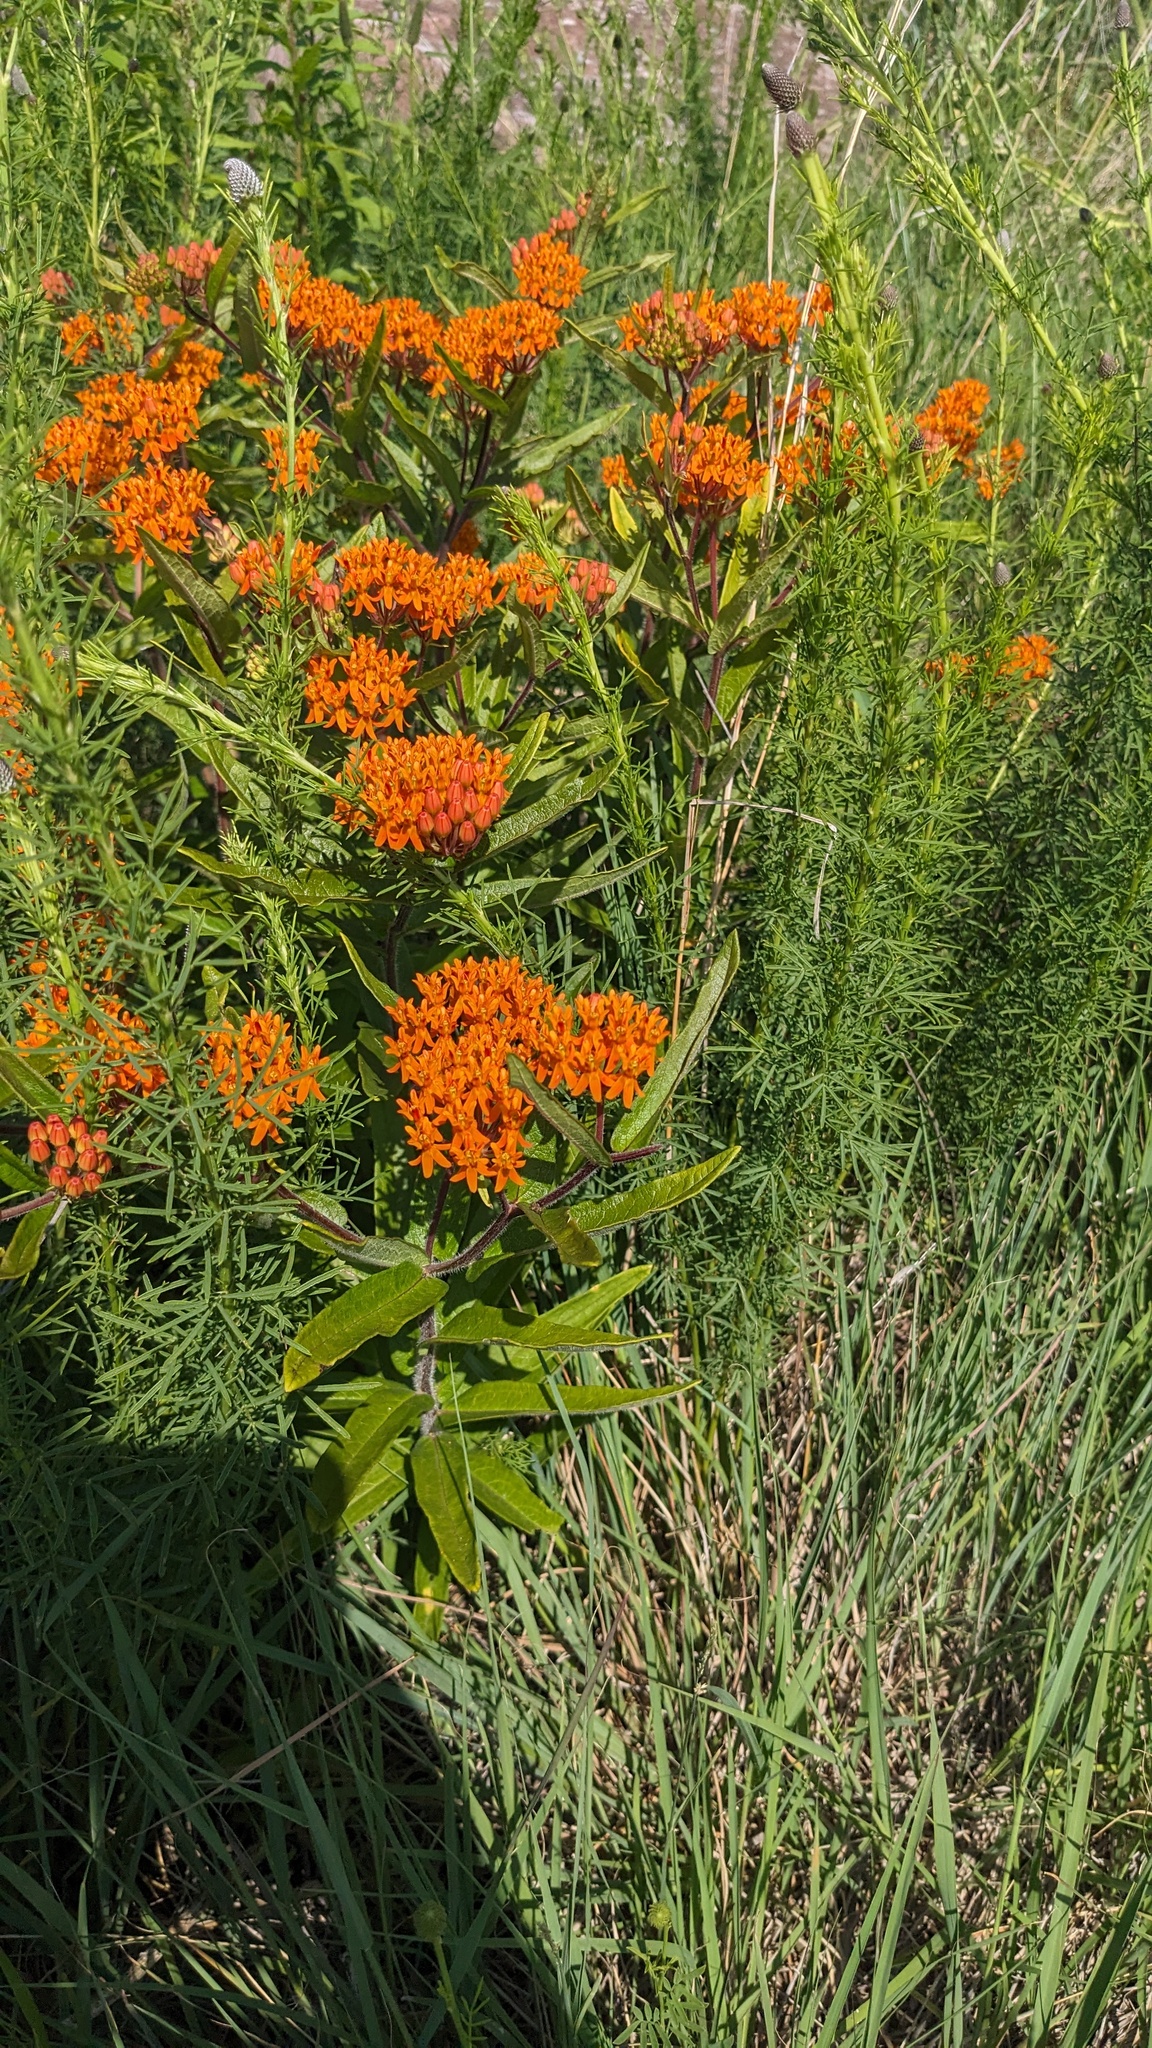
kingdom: Plantae
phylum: Tracheophyta
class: Magnoliopsida
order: Gentianales
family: Apocynaceae
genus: Asclepias
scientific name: Asclepias tuberosa
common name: Butterfly milkweed
